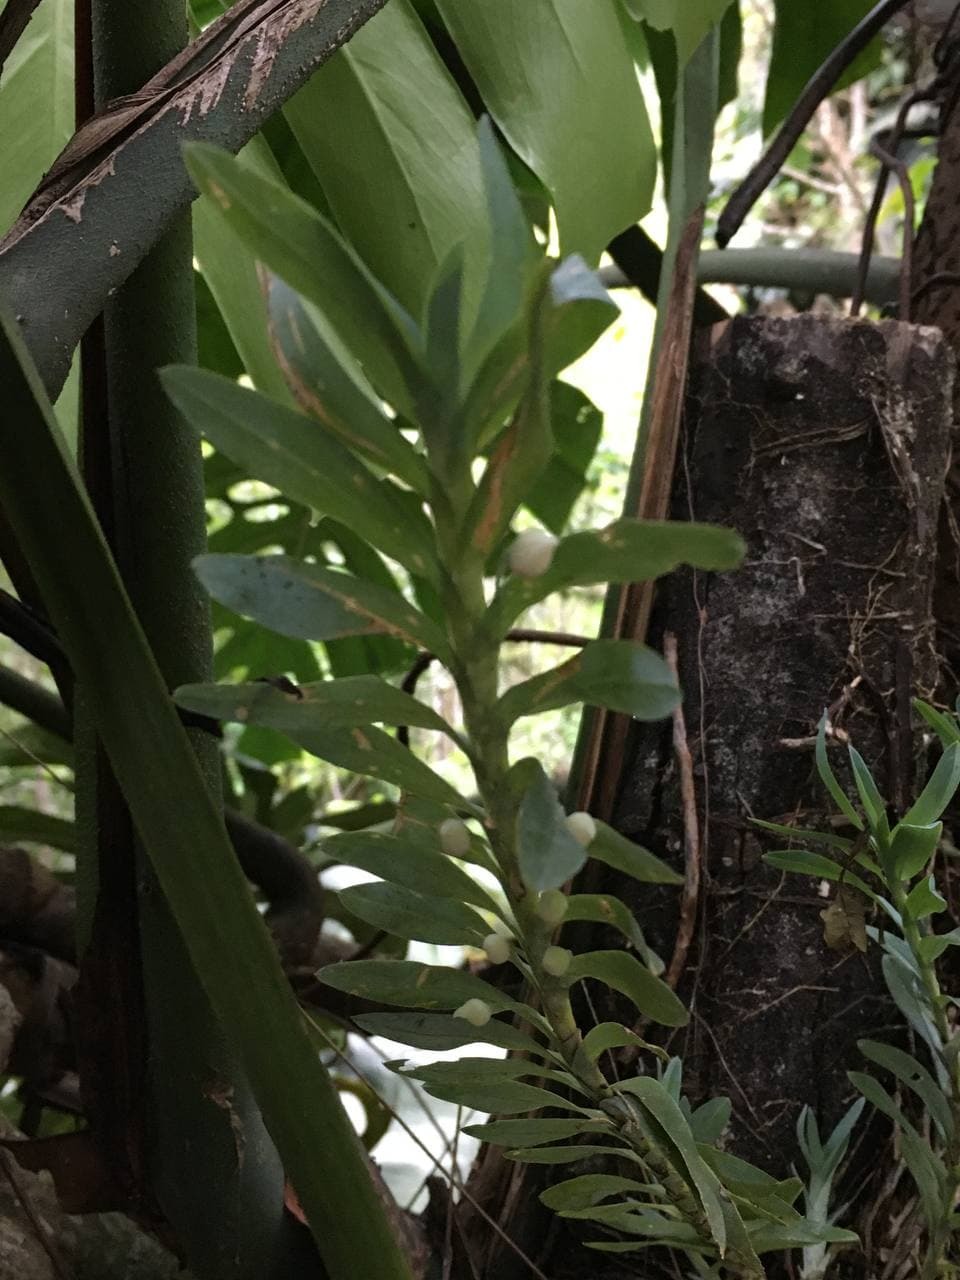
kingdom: Plantae
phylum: Tracheophyta
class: Liliopsida
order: Asparagales
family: Orchidaceae
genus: Dichaea
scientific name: Dichaea glauca
